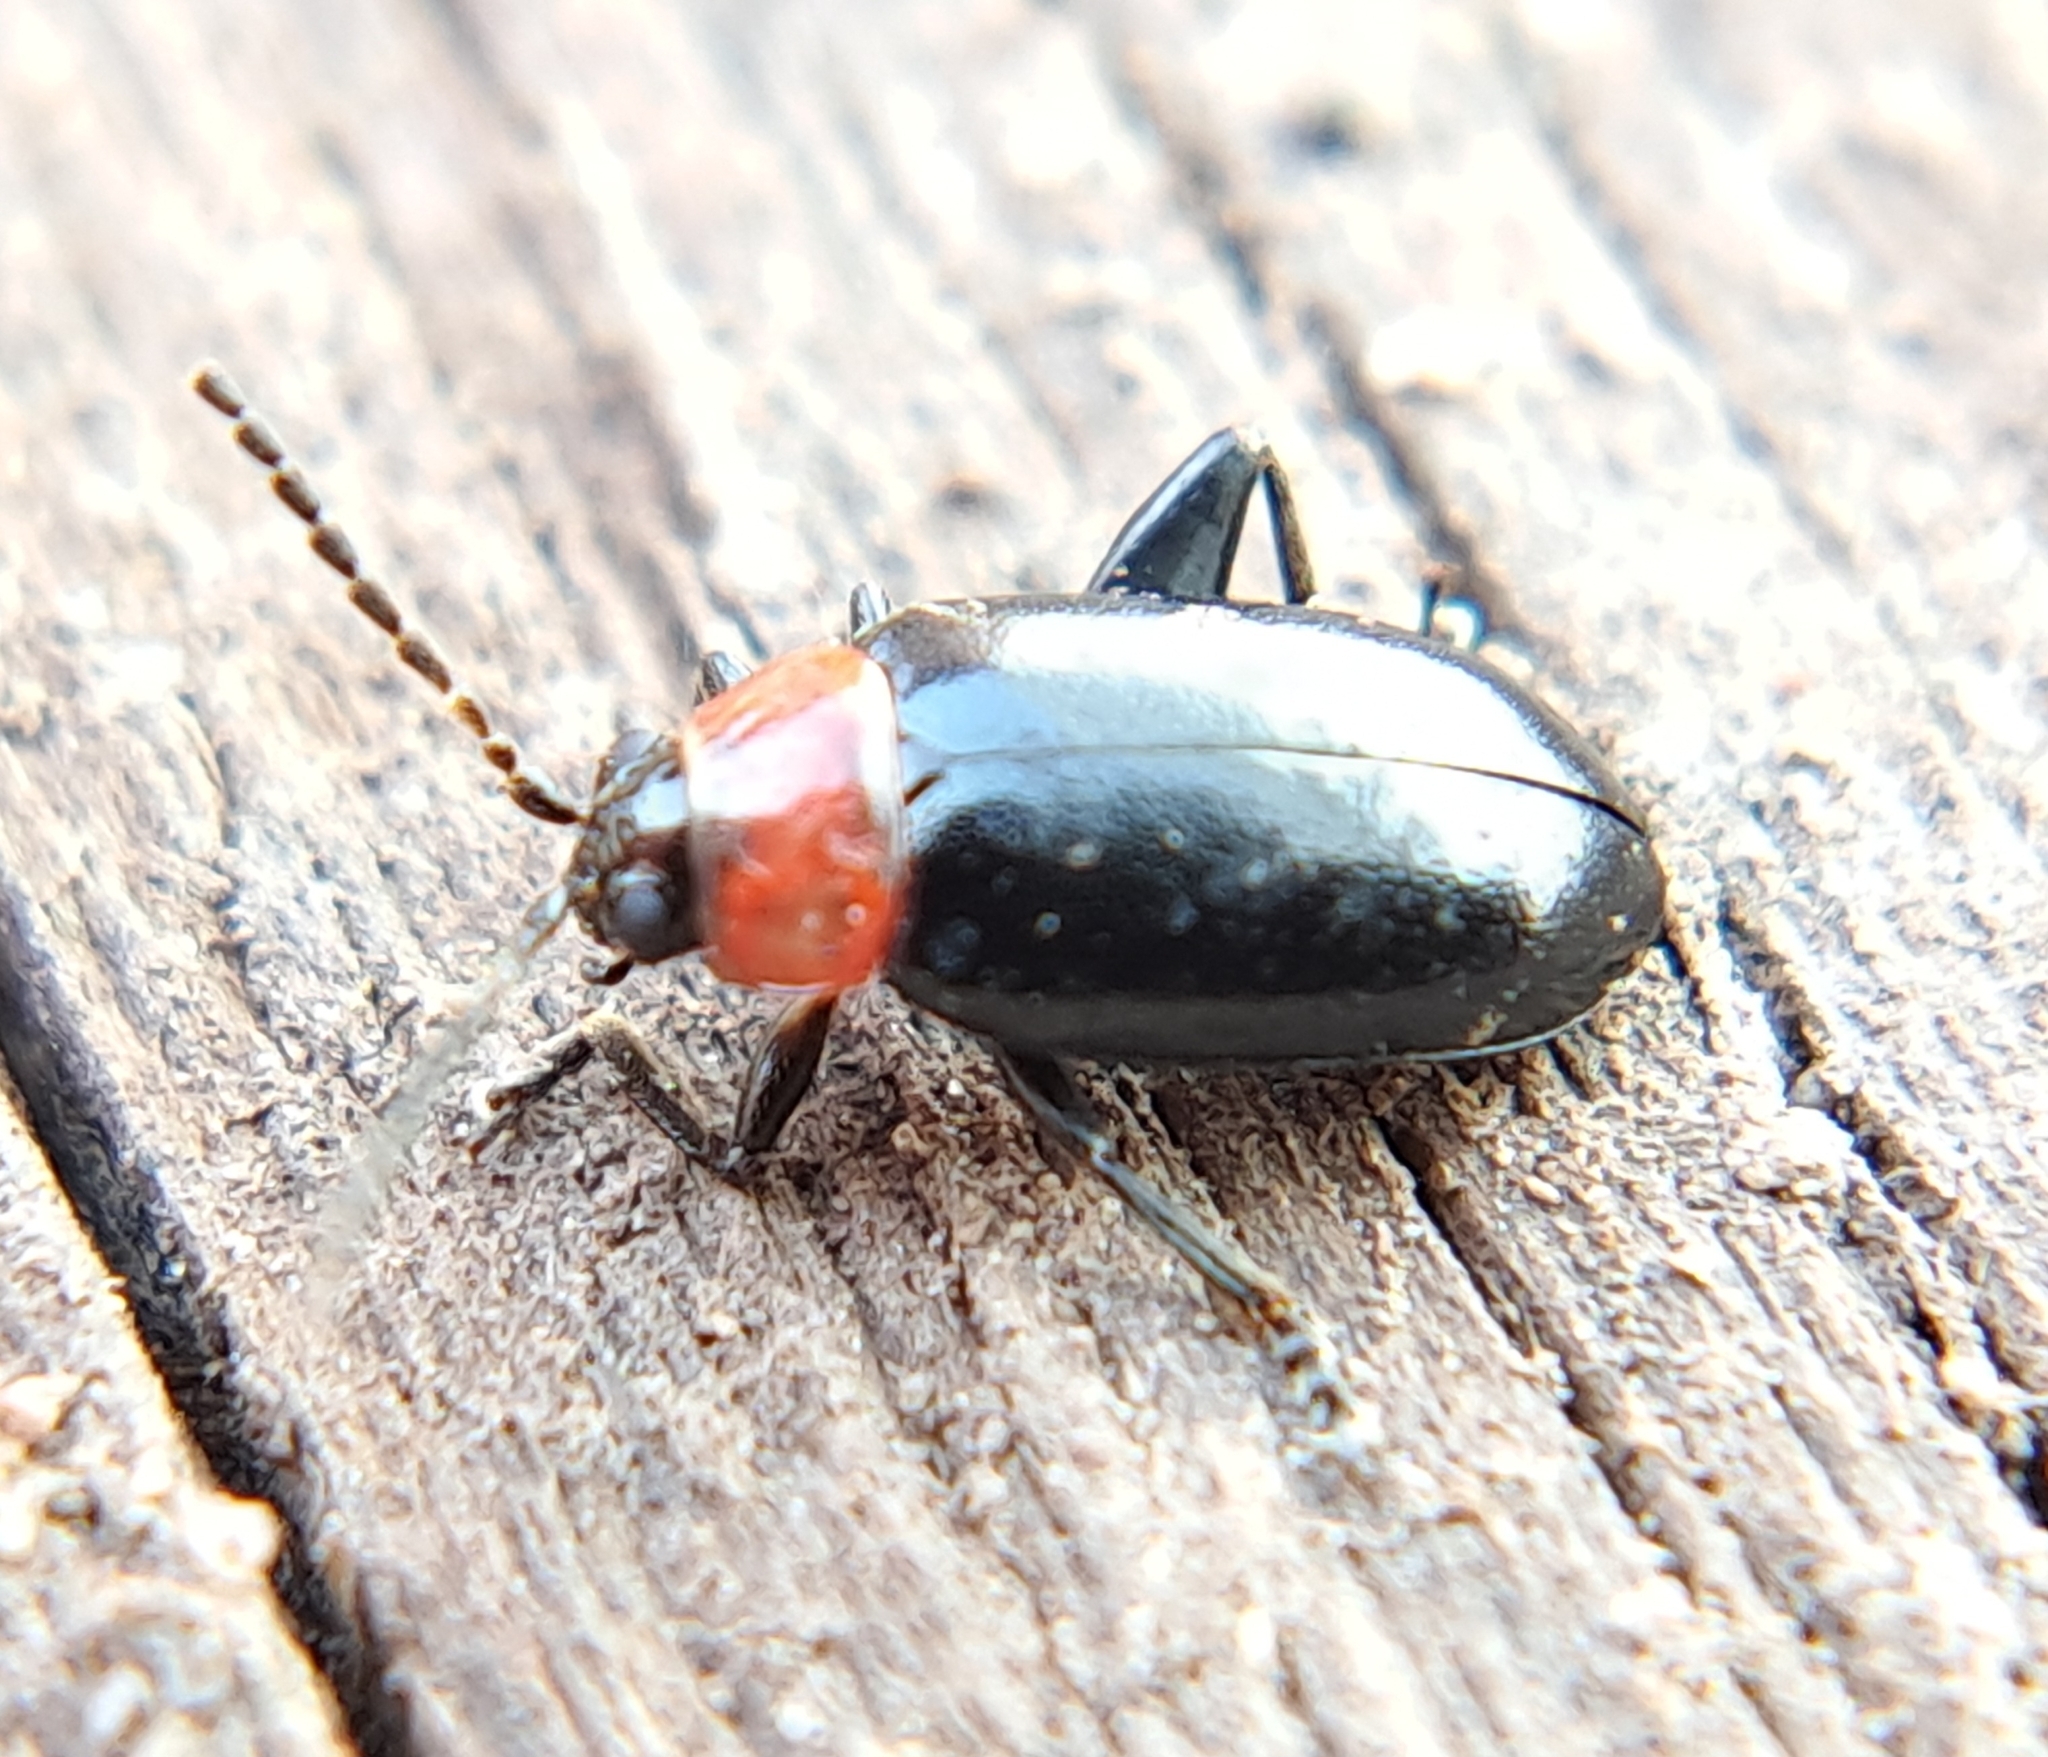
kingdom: Animalia
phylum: Arthropoda
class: Insecta
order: Coleoptera
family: Chrysomelidae
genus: Disonycha
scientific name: Disonycha xanthomelas
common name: Spinach flea beetle
